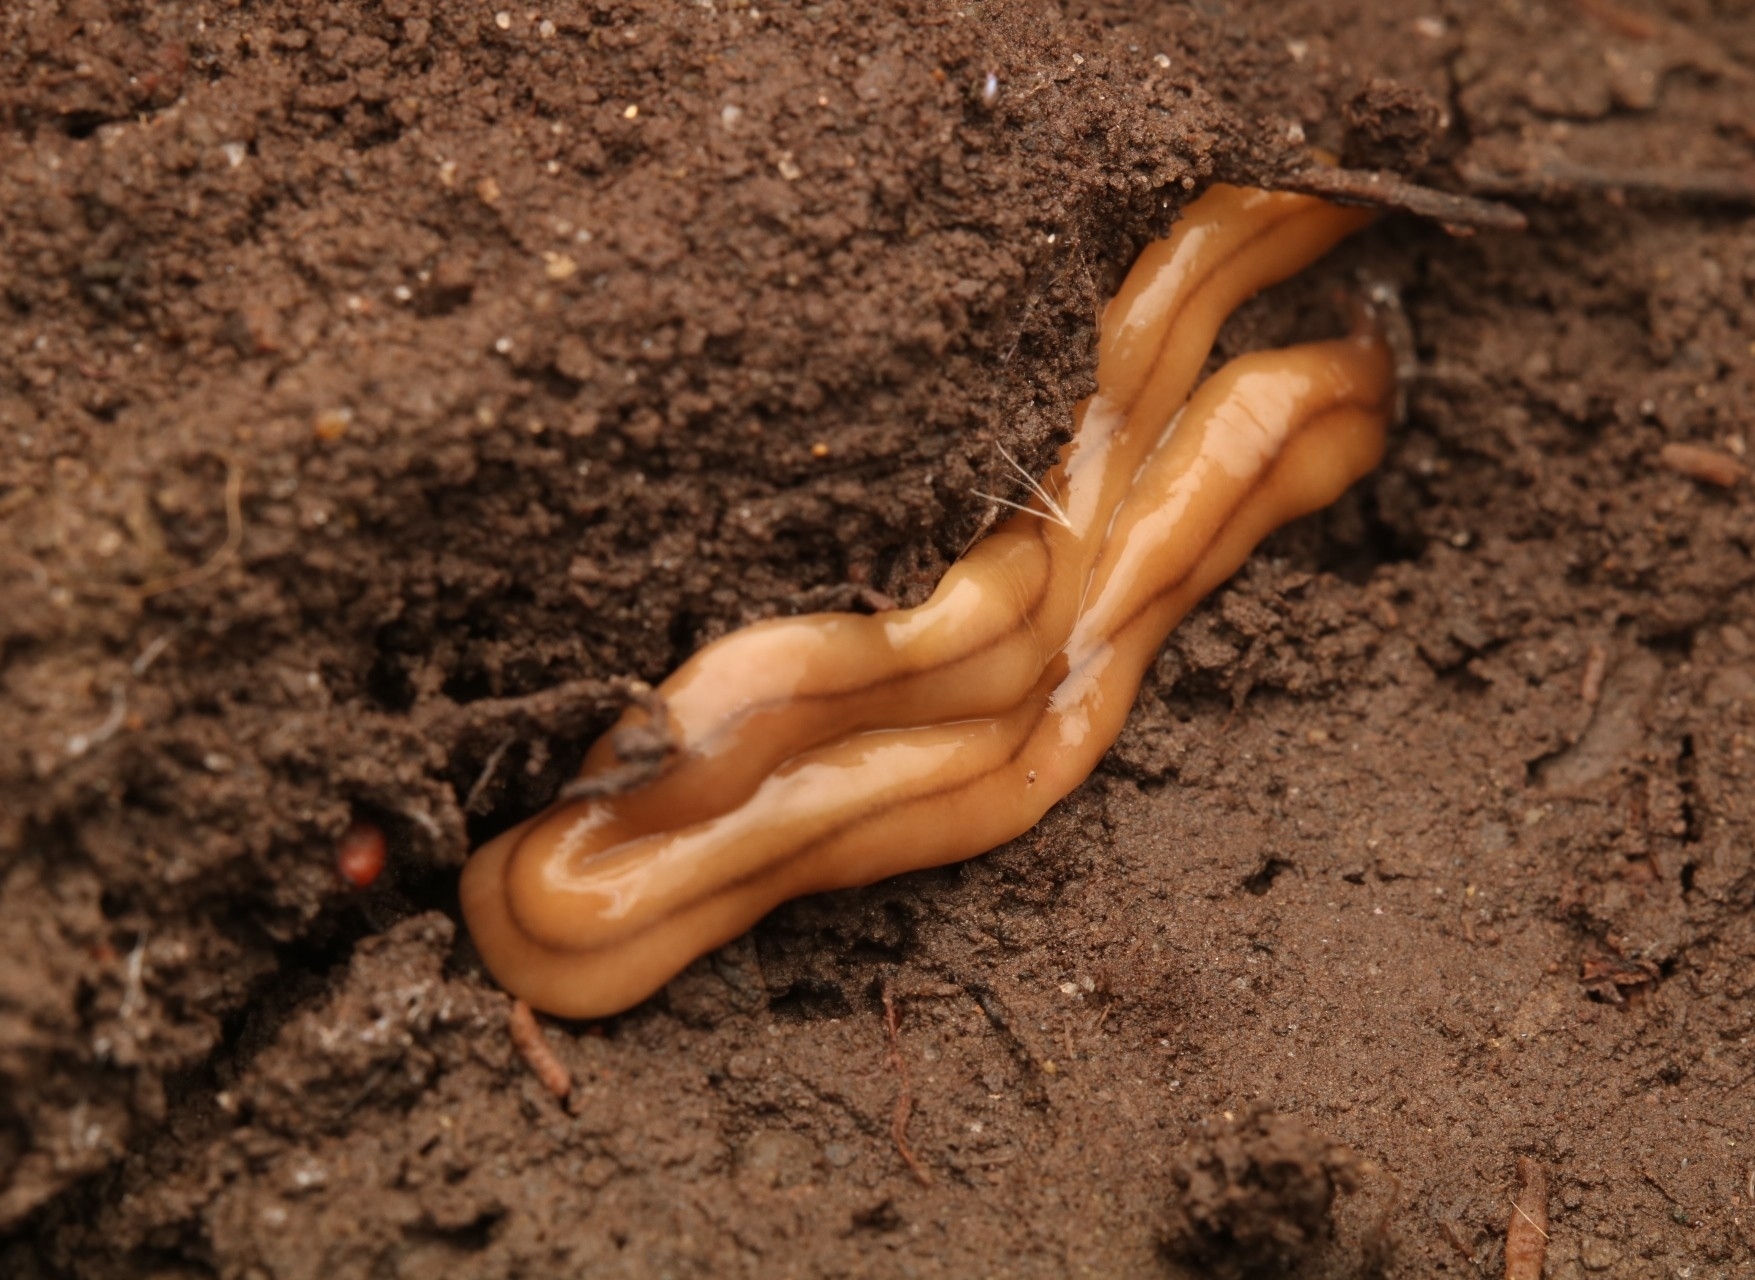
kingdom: Animalia
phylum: Platyhelminthes
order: Tricladida
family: Geoplanidae
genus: Bipalium
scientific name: Bipalium adventitium
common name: Land planarian
